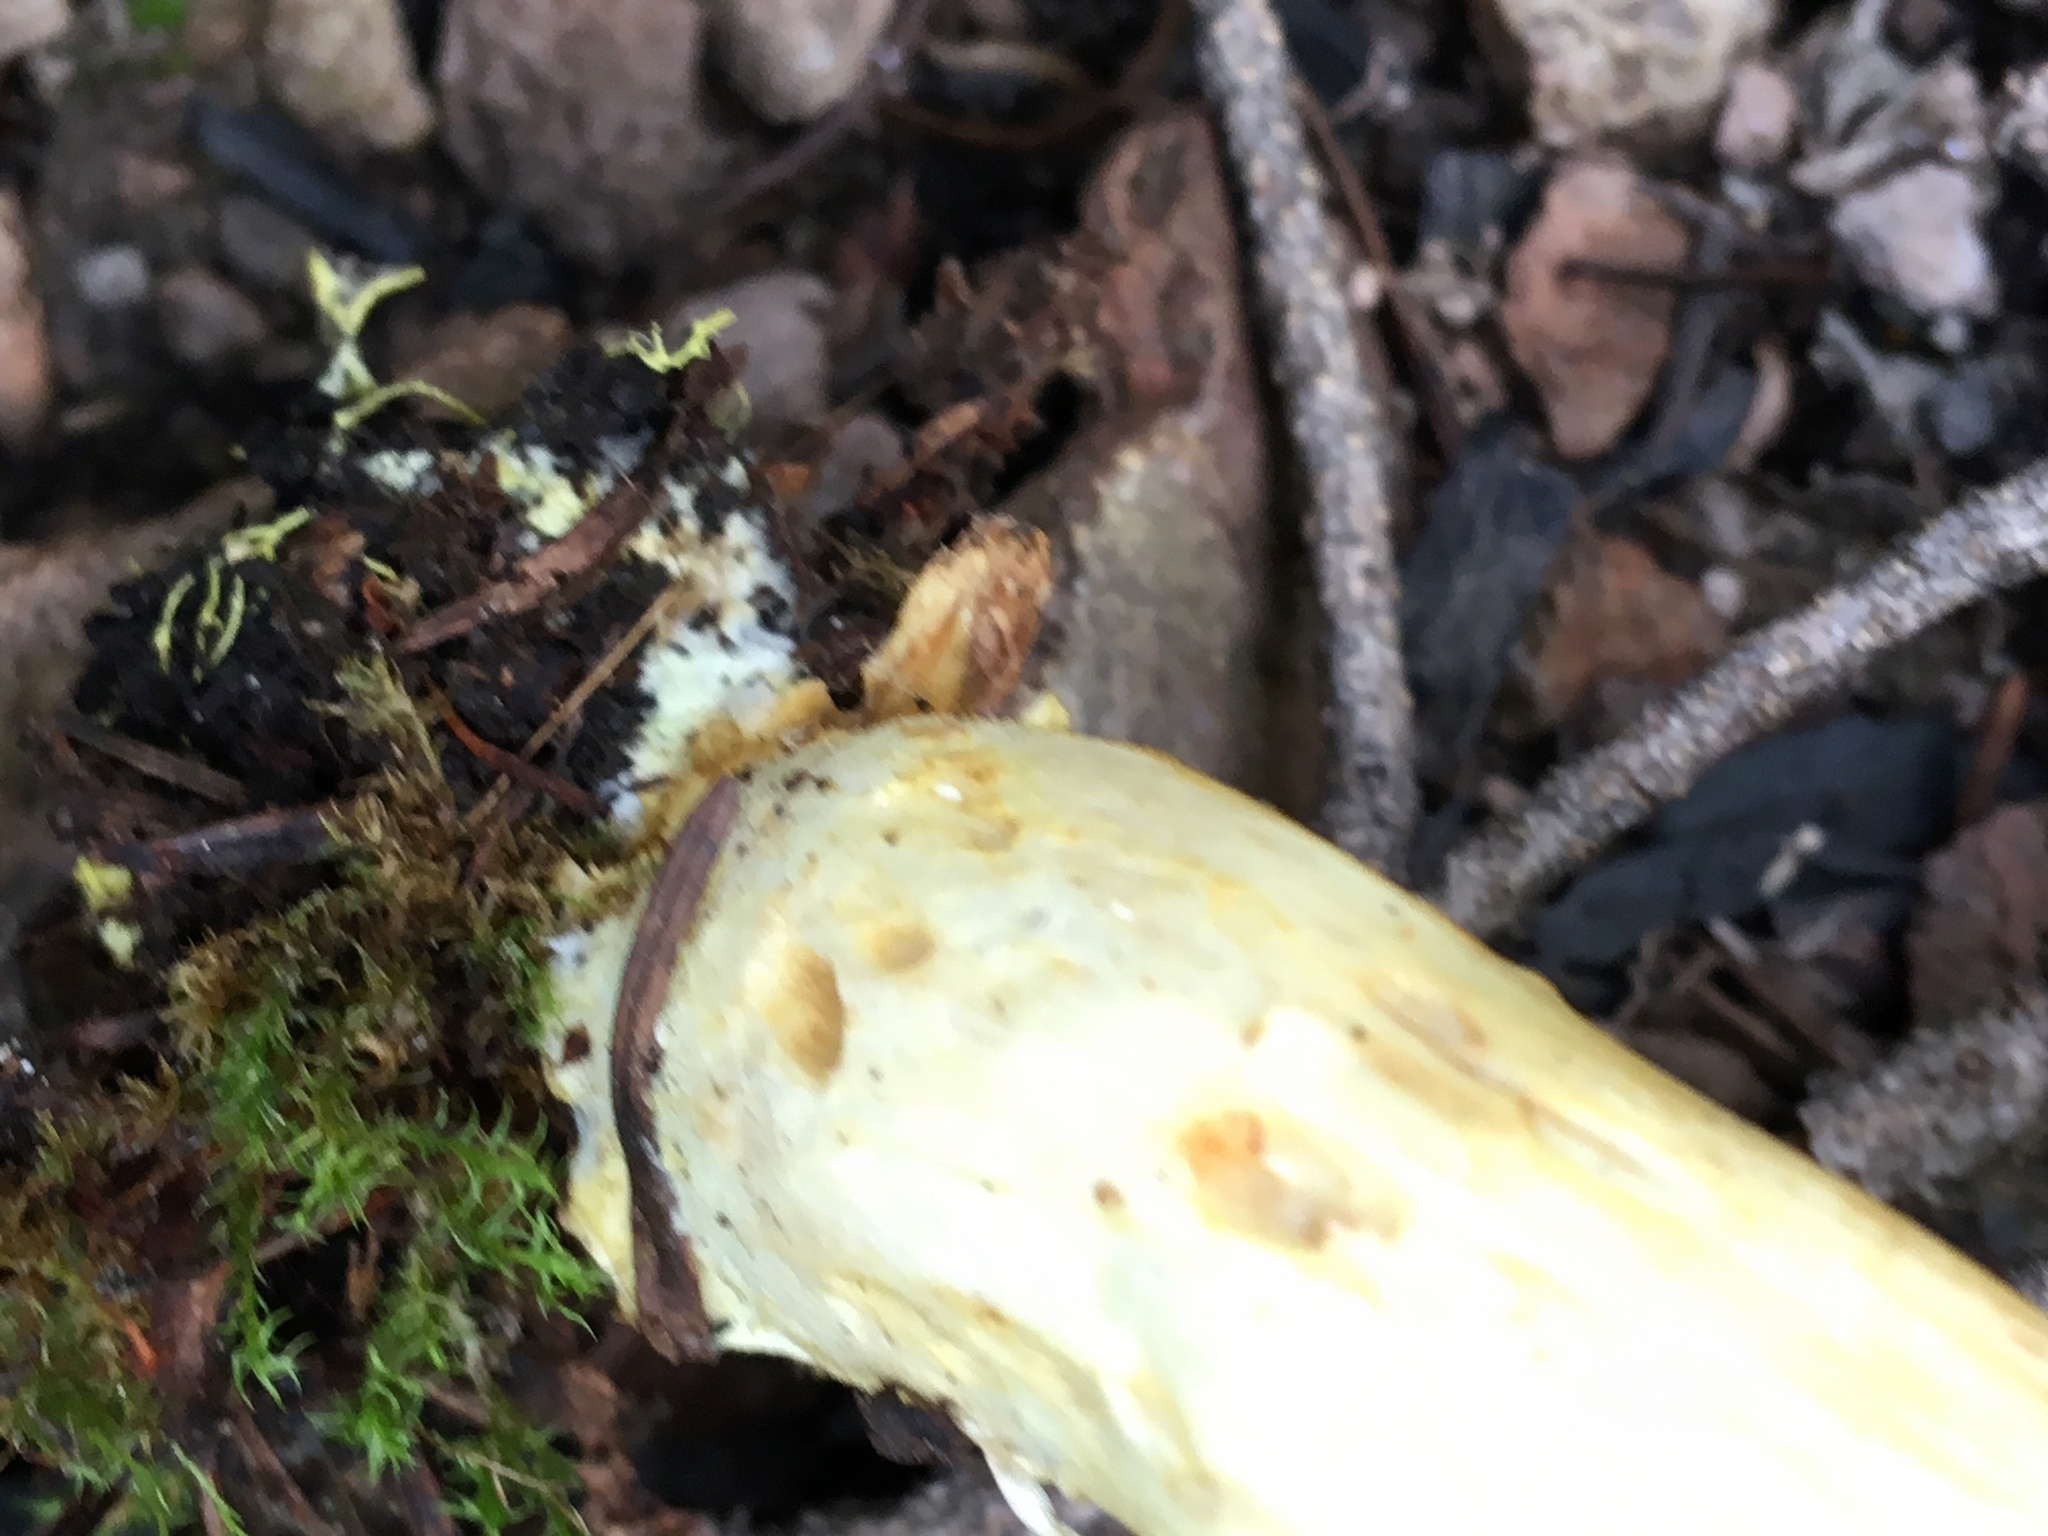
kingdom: Fungi
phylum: Basidiomycota
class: Agaricomycetes
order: Boletales
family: Boletaceae
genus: Xerocomus
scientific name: Xerocomus ferrugineus
